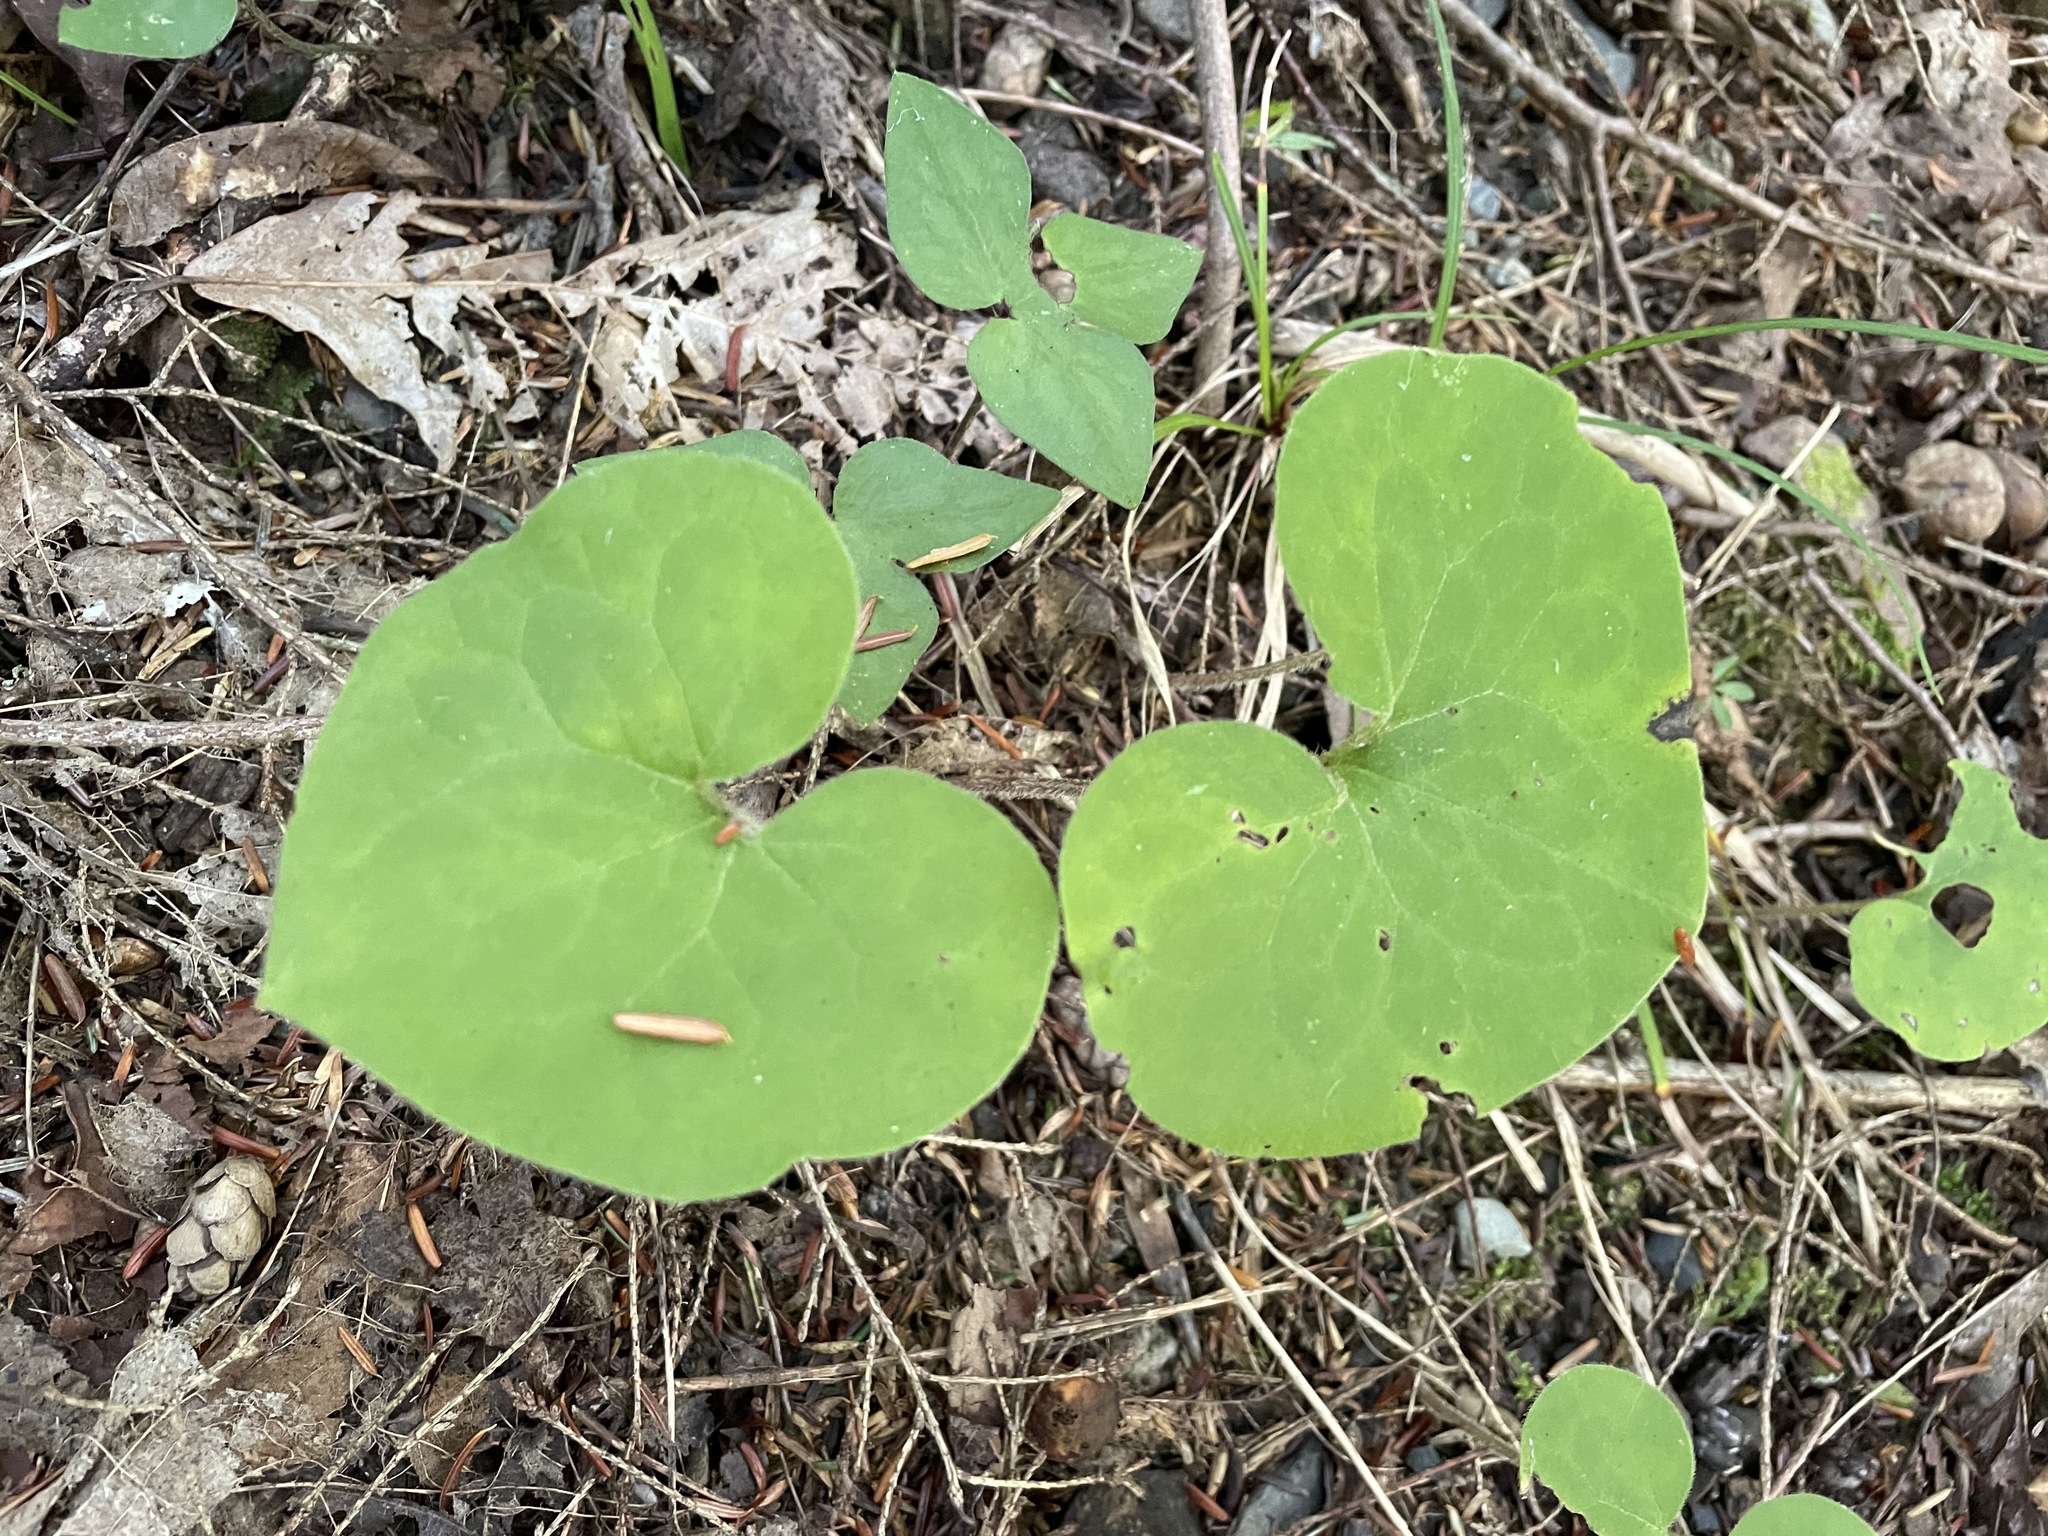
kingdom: Plantae
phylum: Tracheophyta
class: Magnoliopsida
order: Piperales
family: Aristolochiaceae
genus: Asarum
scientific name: Asarum canadense
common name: Wild ginger
